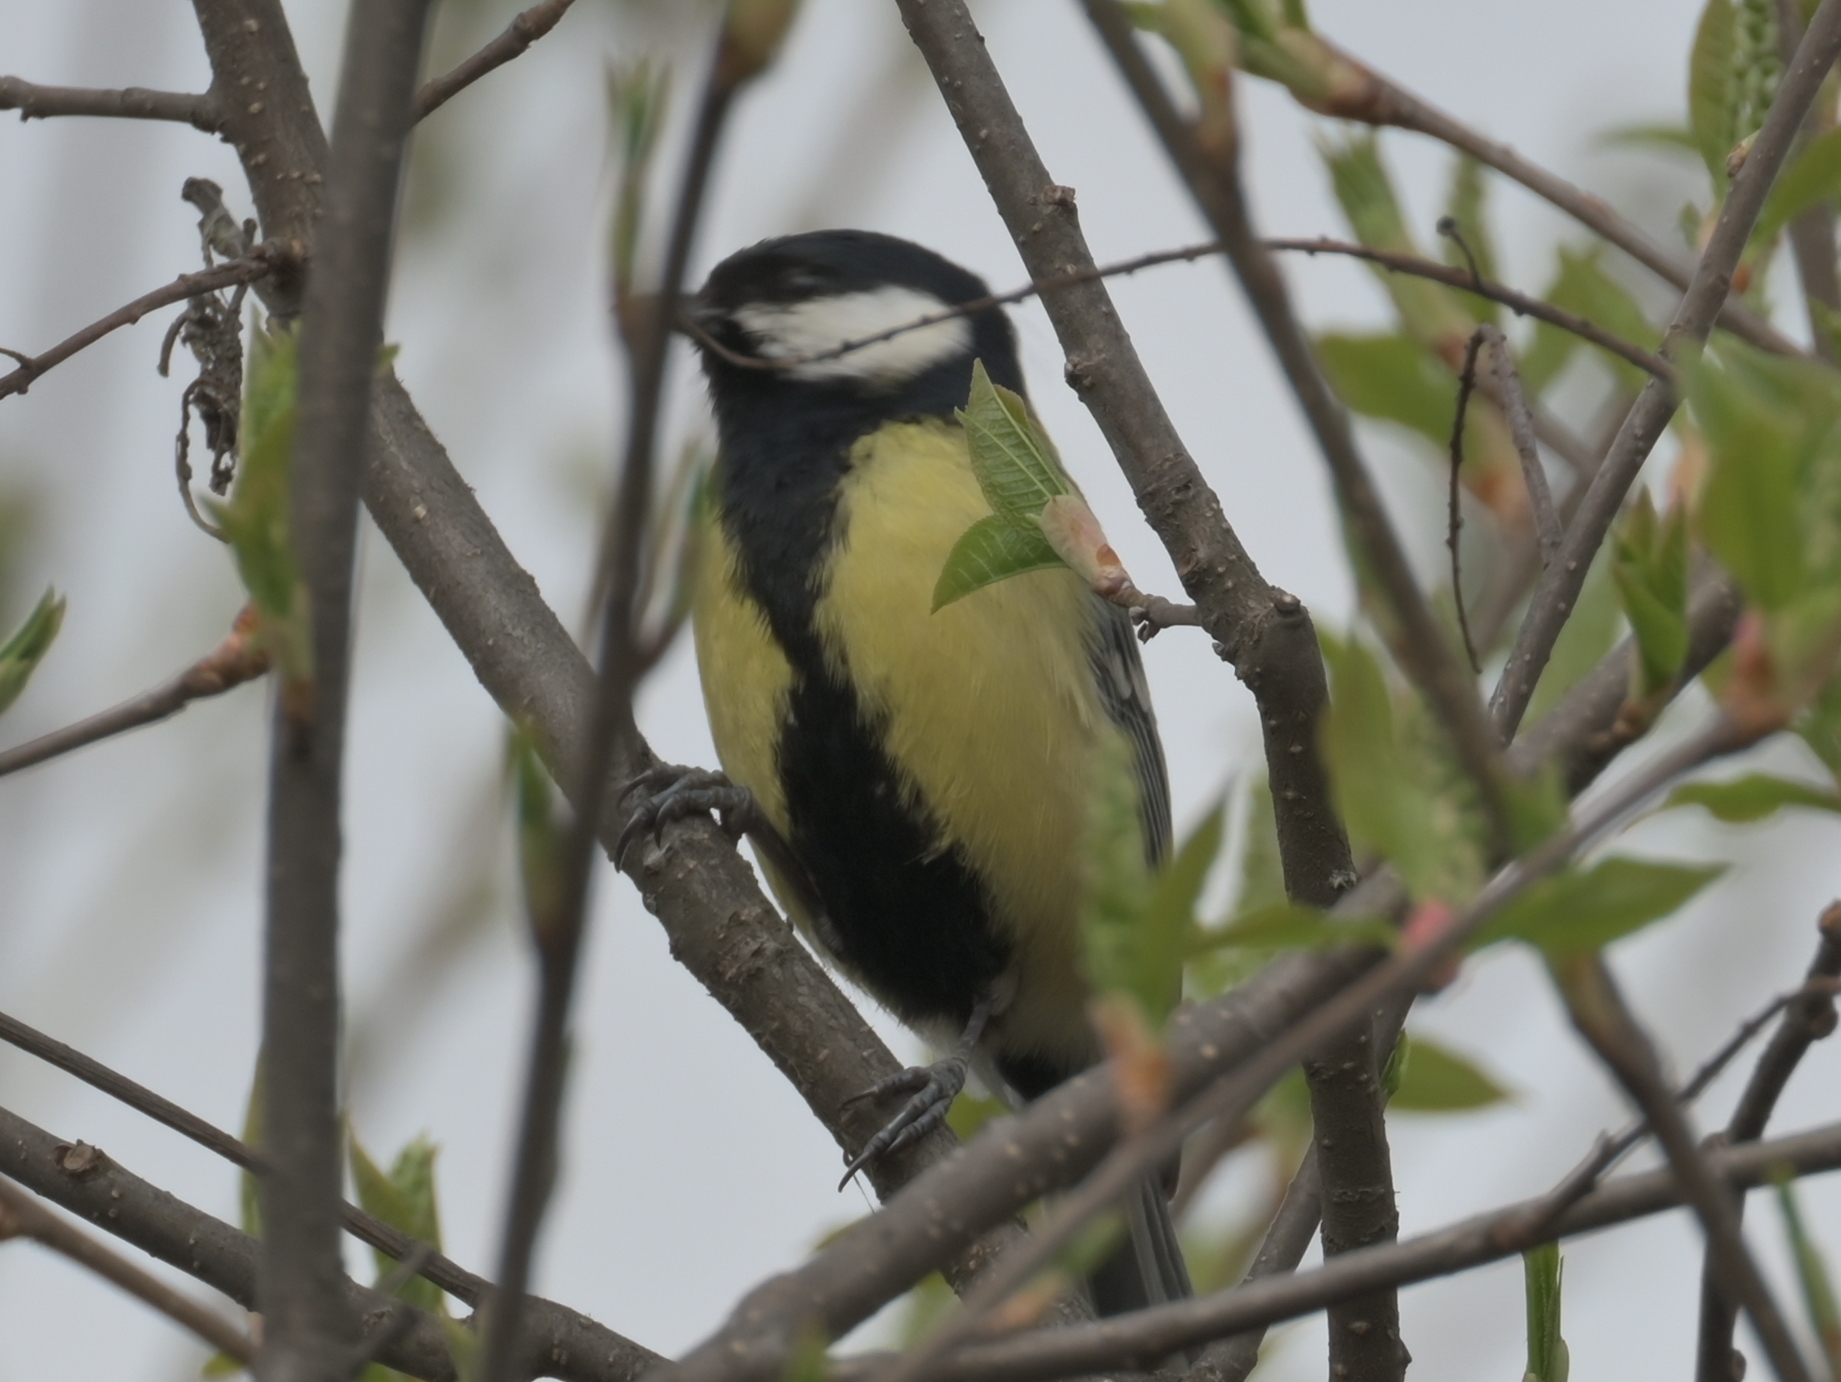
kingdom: Animalia
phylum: Chordata
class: Aves
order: Passeriformes
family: Paridae
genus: Parus
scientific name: Parus major
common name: Great tit
